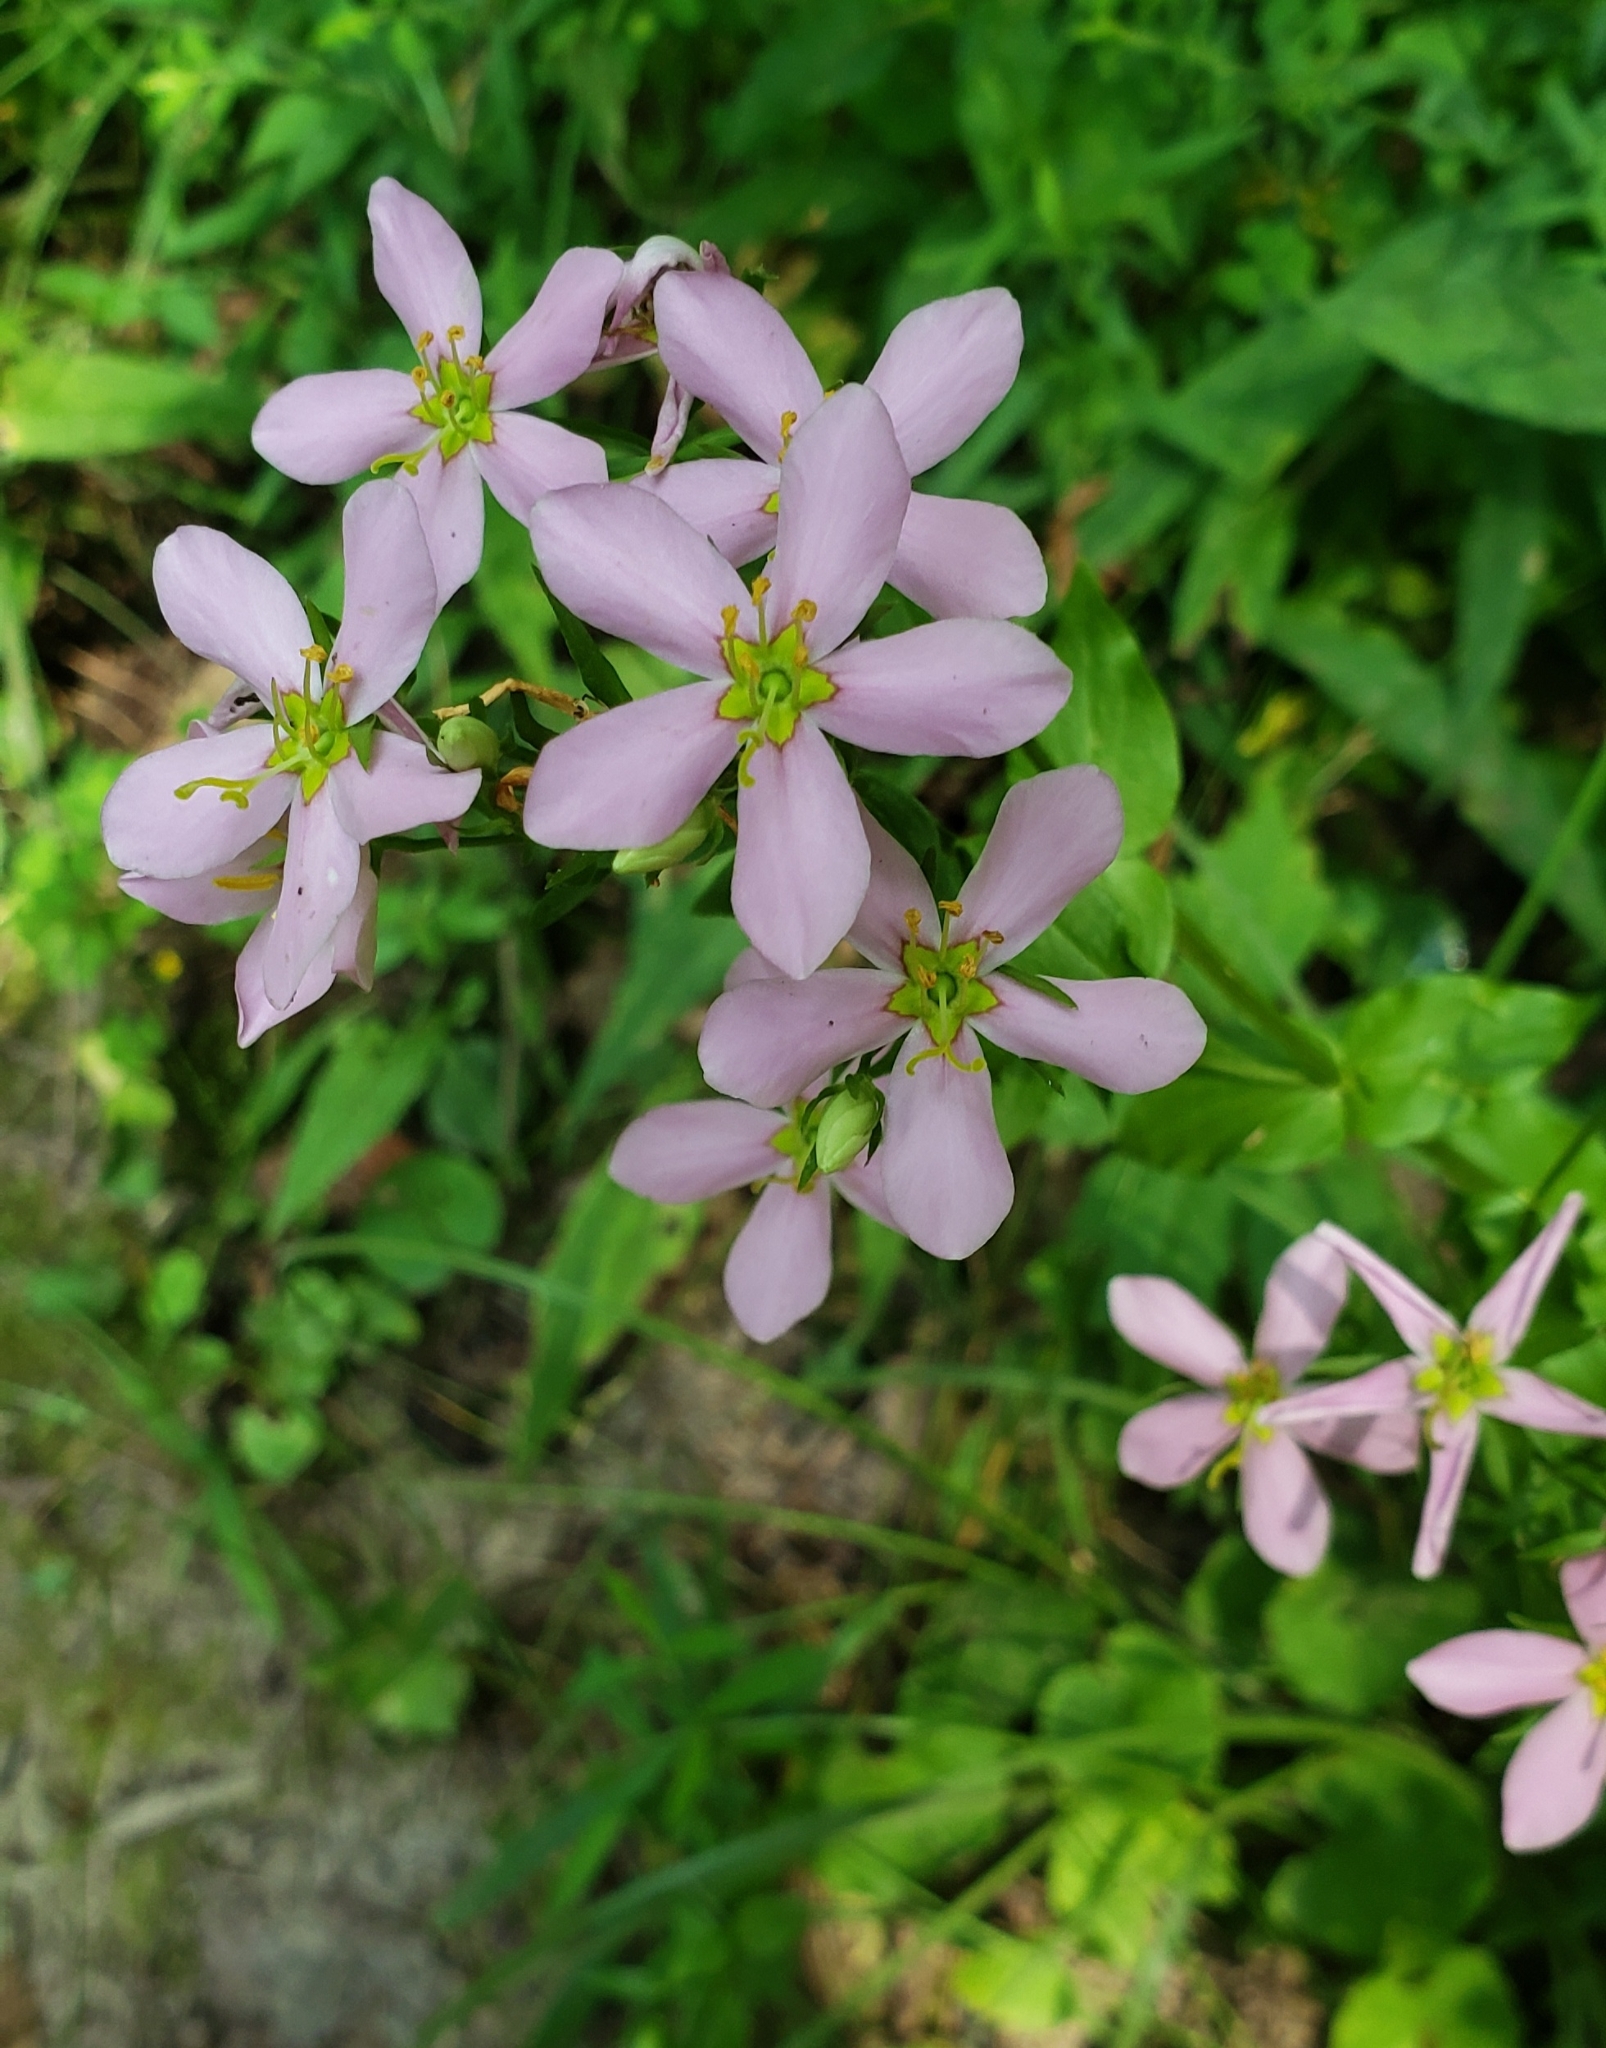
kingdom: Plantae
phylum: Tracheophyta
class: Magnoliopsida
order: Gentianales
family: Gentianaceae
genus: Sabatia
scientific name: Sabatia angularis
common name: Rose-pink
